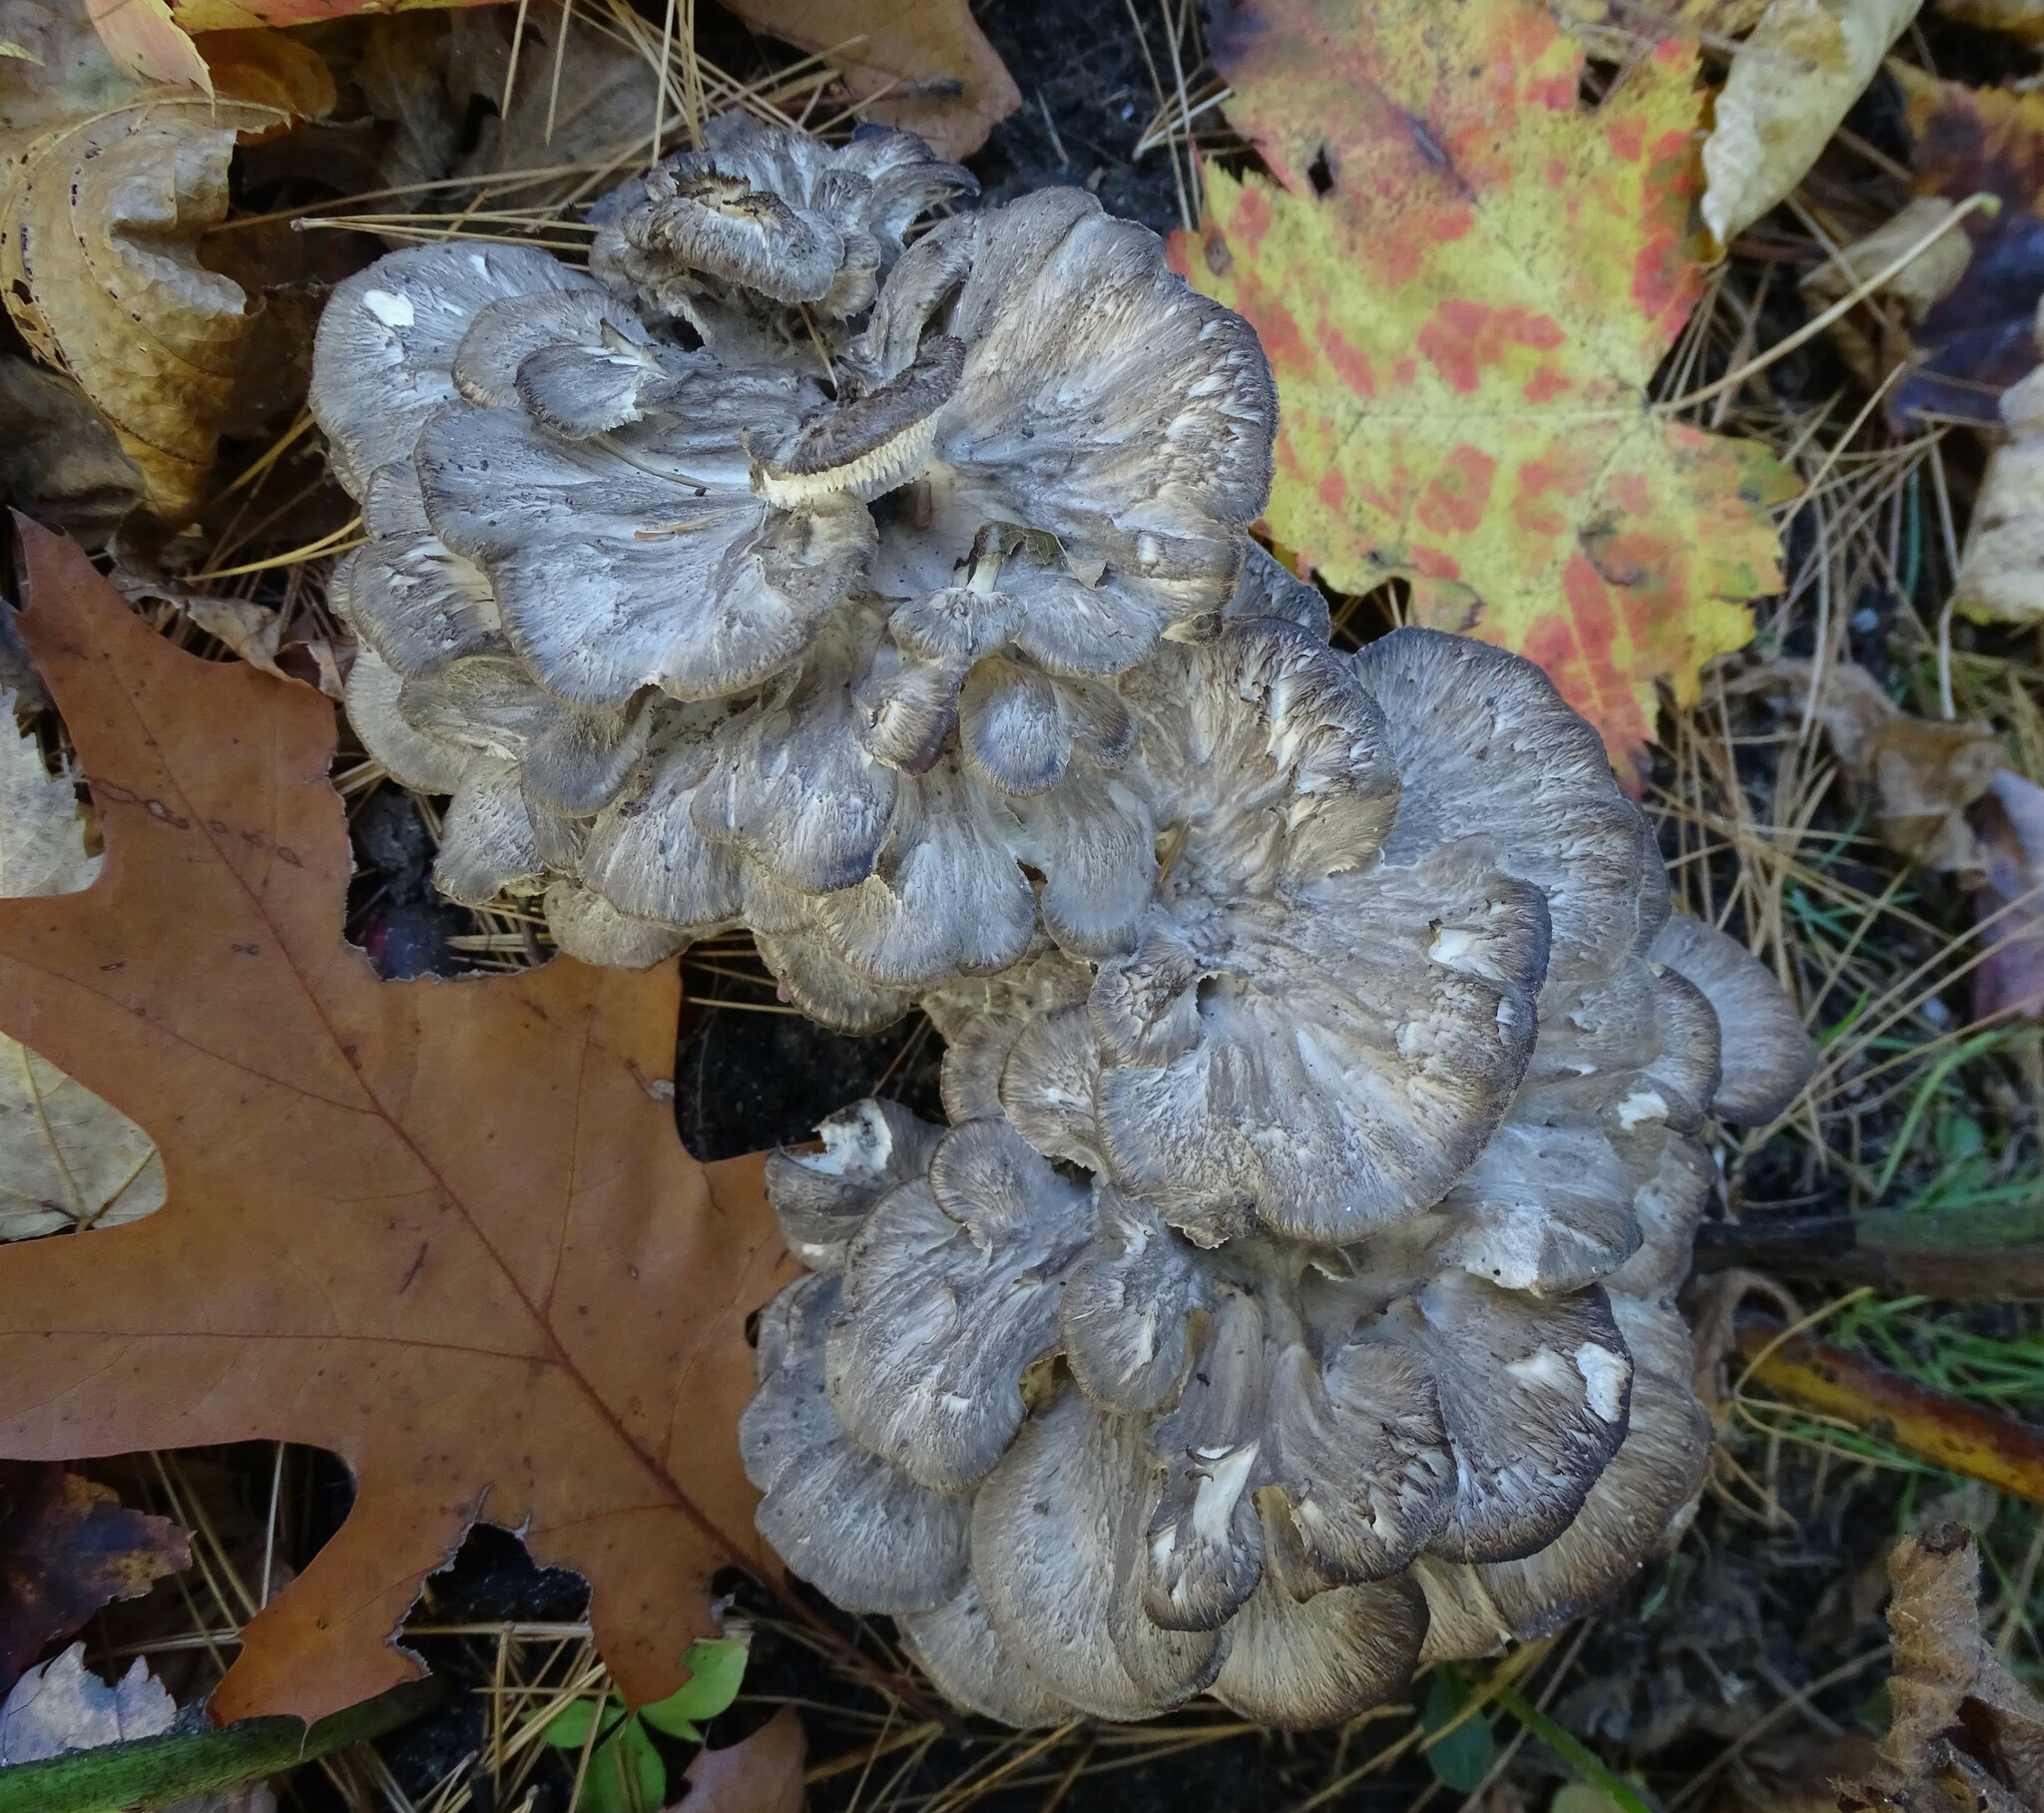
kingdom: Fungi
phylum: Basidiomycota
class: Agaricomycetes
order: Polyporales
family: Grifolaceae
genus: Grifola
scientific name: Grifola frondosa
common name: Hen of the woods
